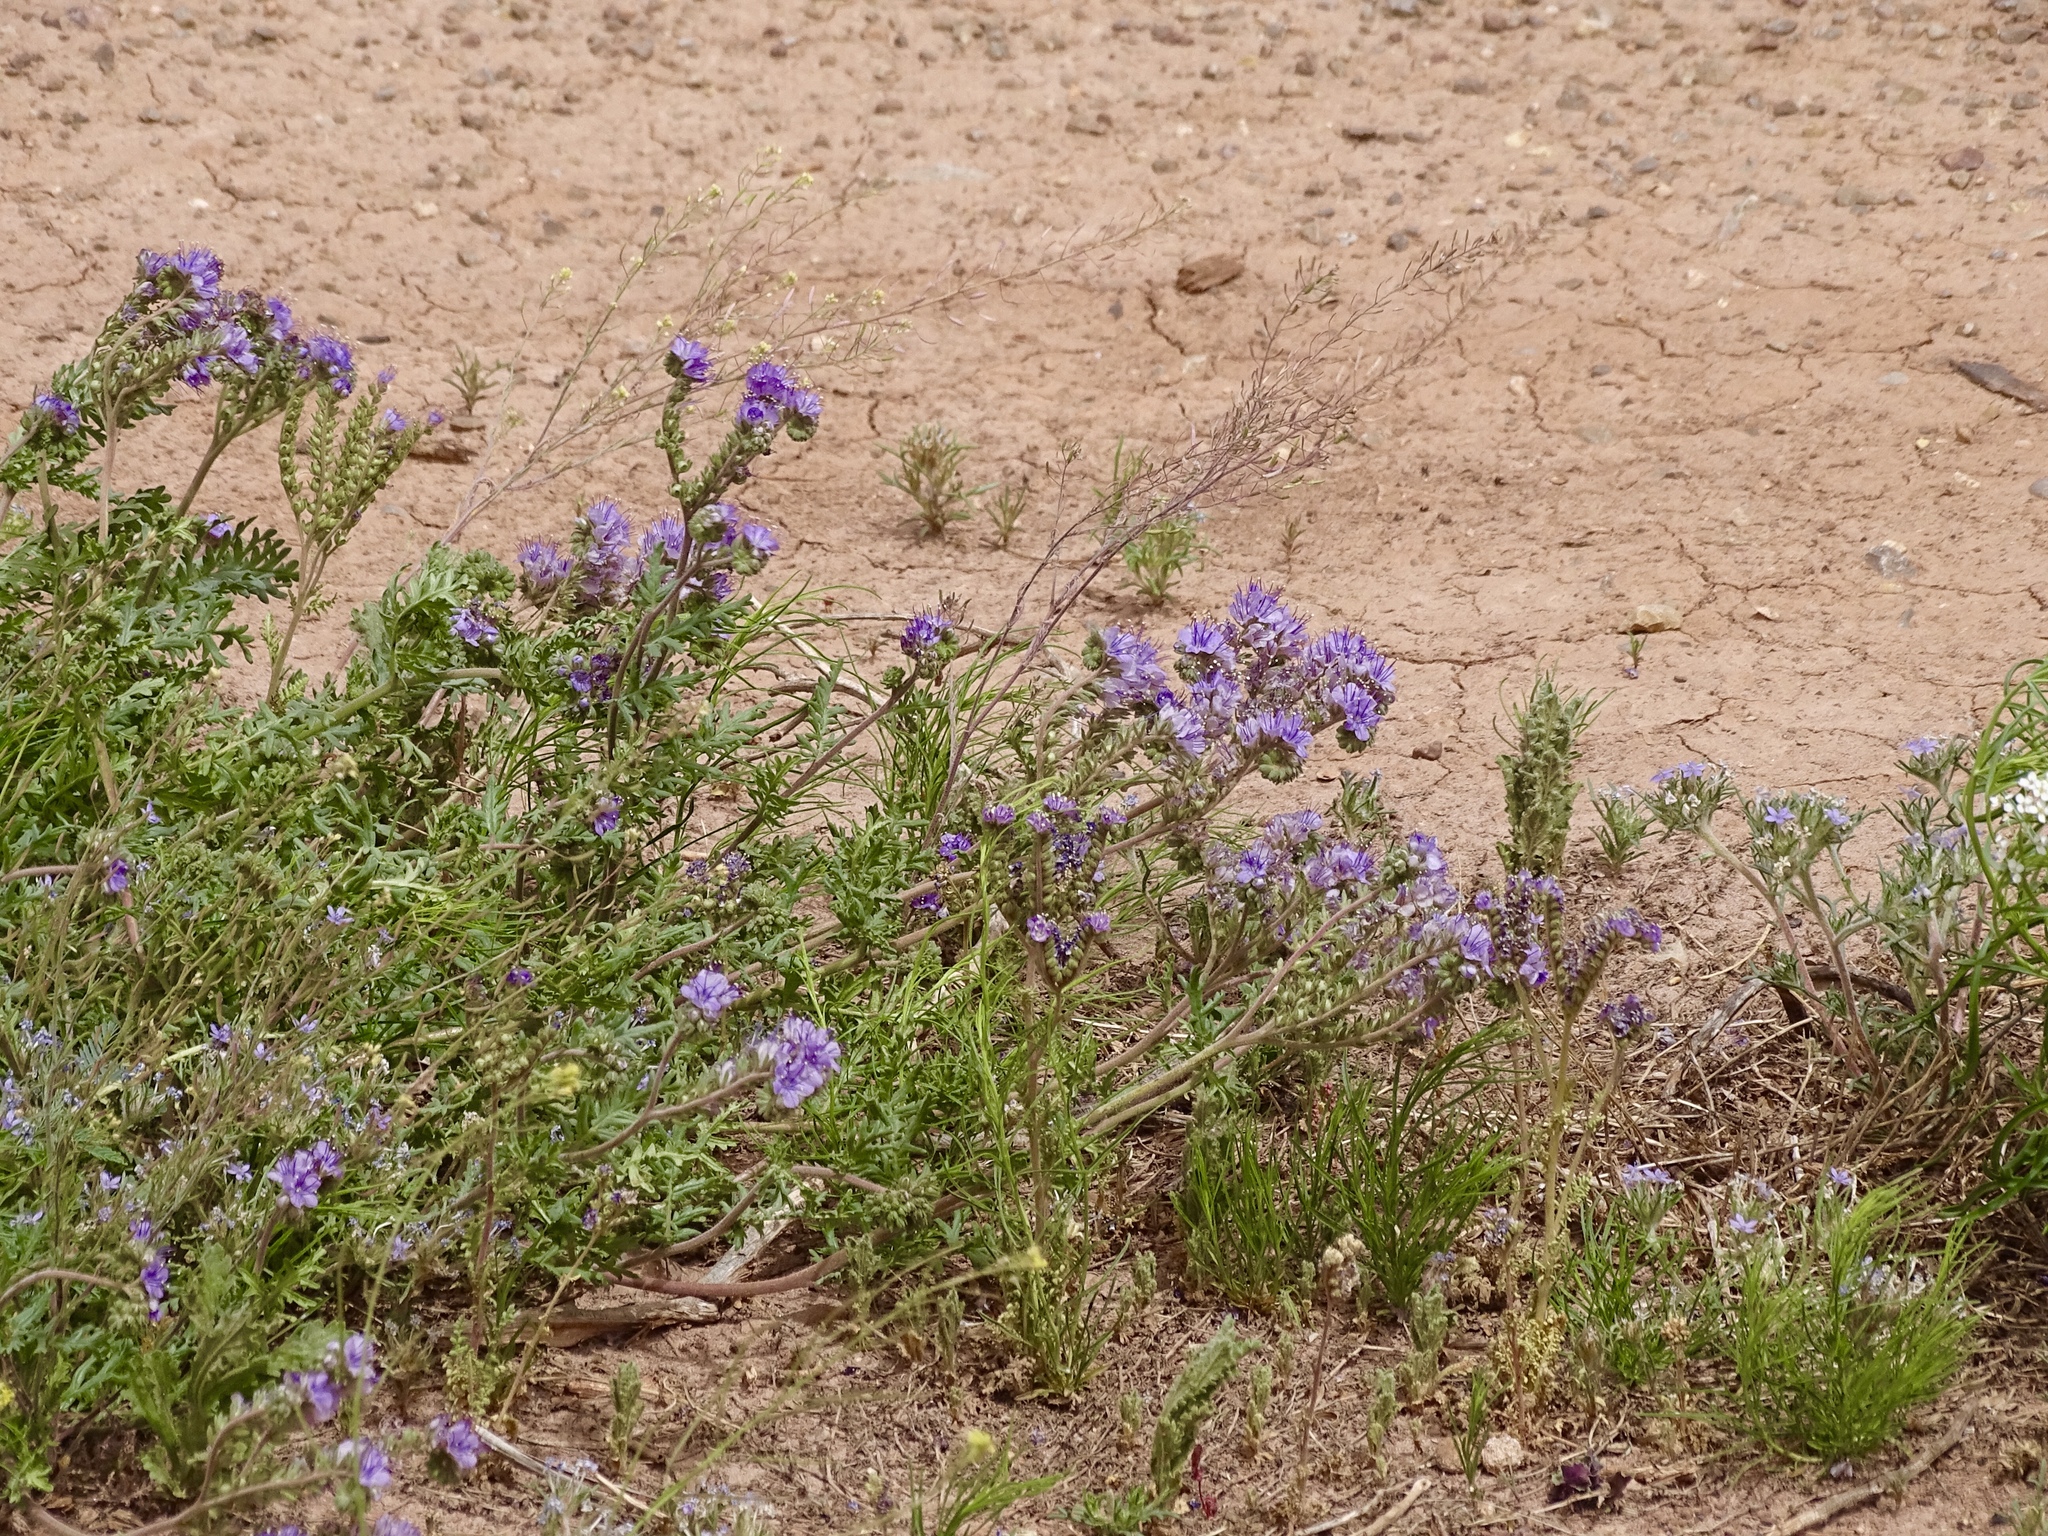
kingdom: Plantae
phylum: Tracheophyta
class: Magnoliopsida
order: Boraginales
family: Hydrophyllaceae
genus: Phacelia
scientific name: Phacelia popei
